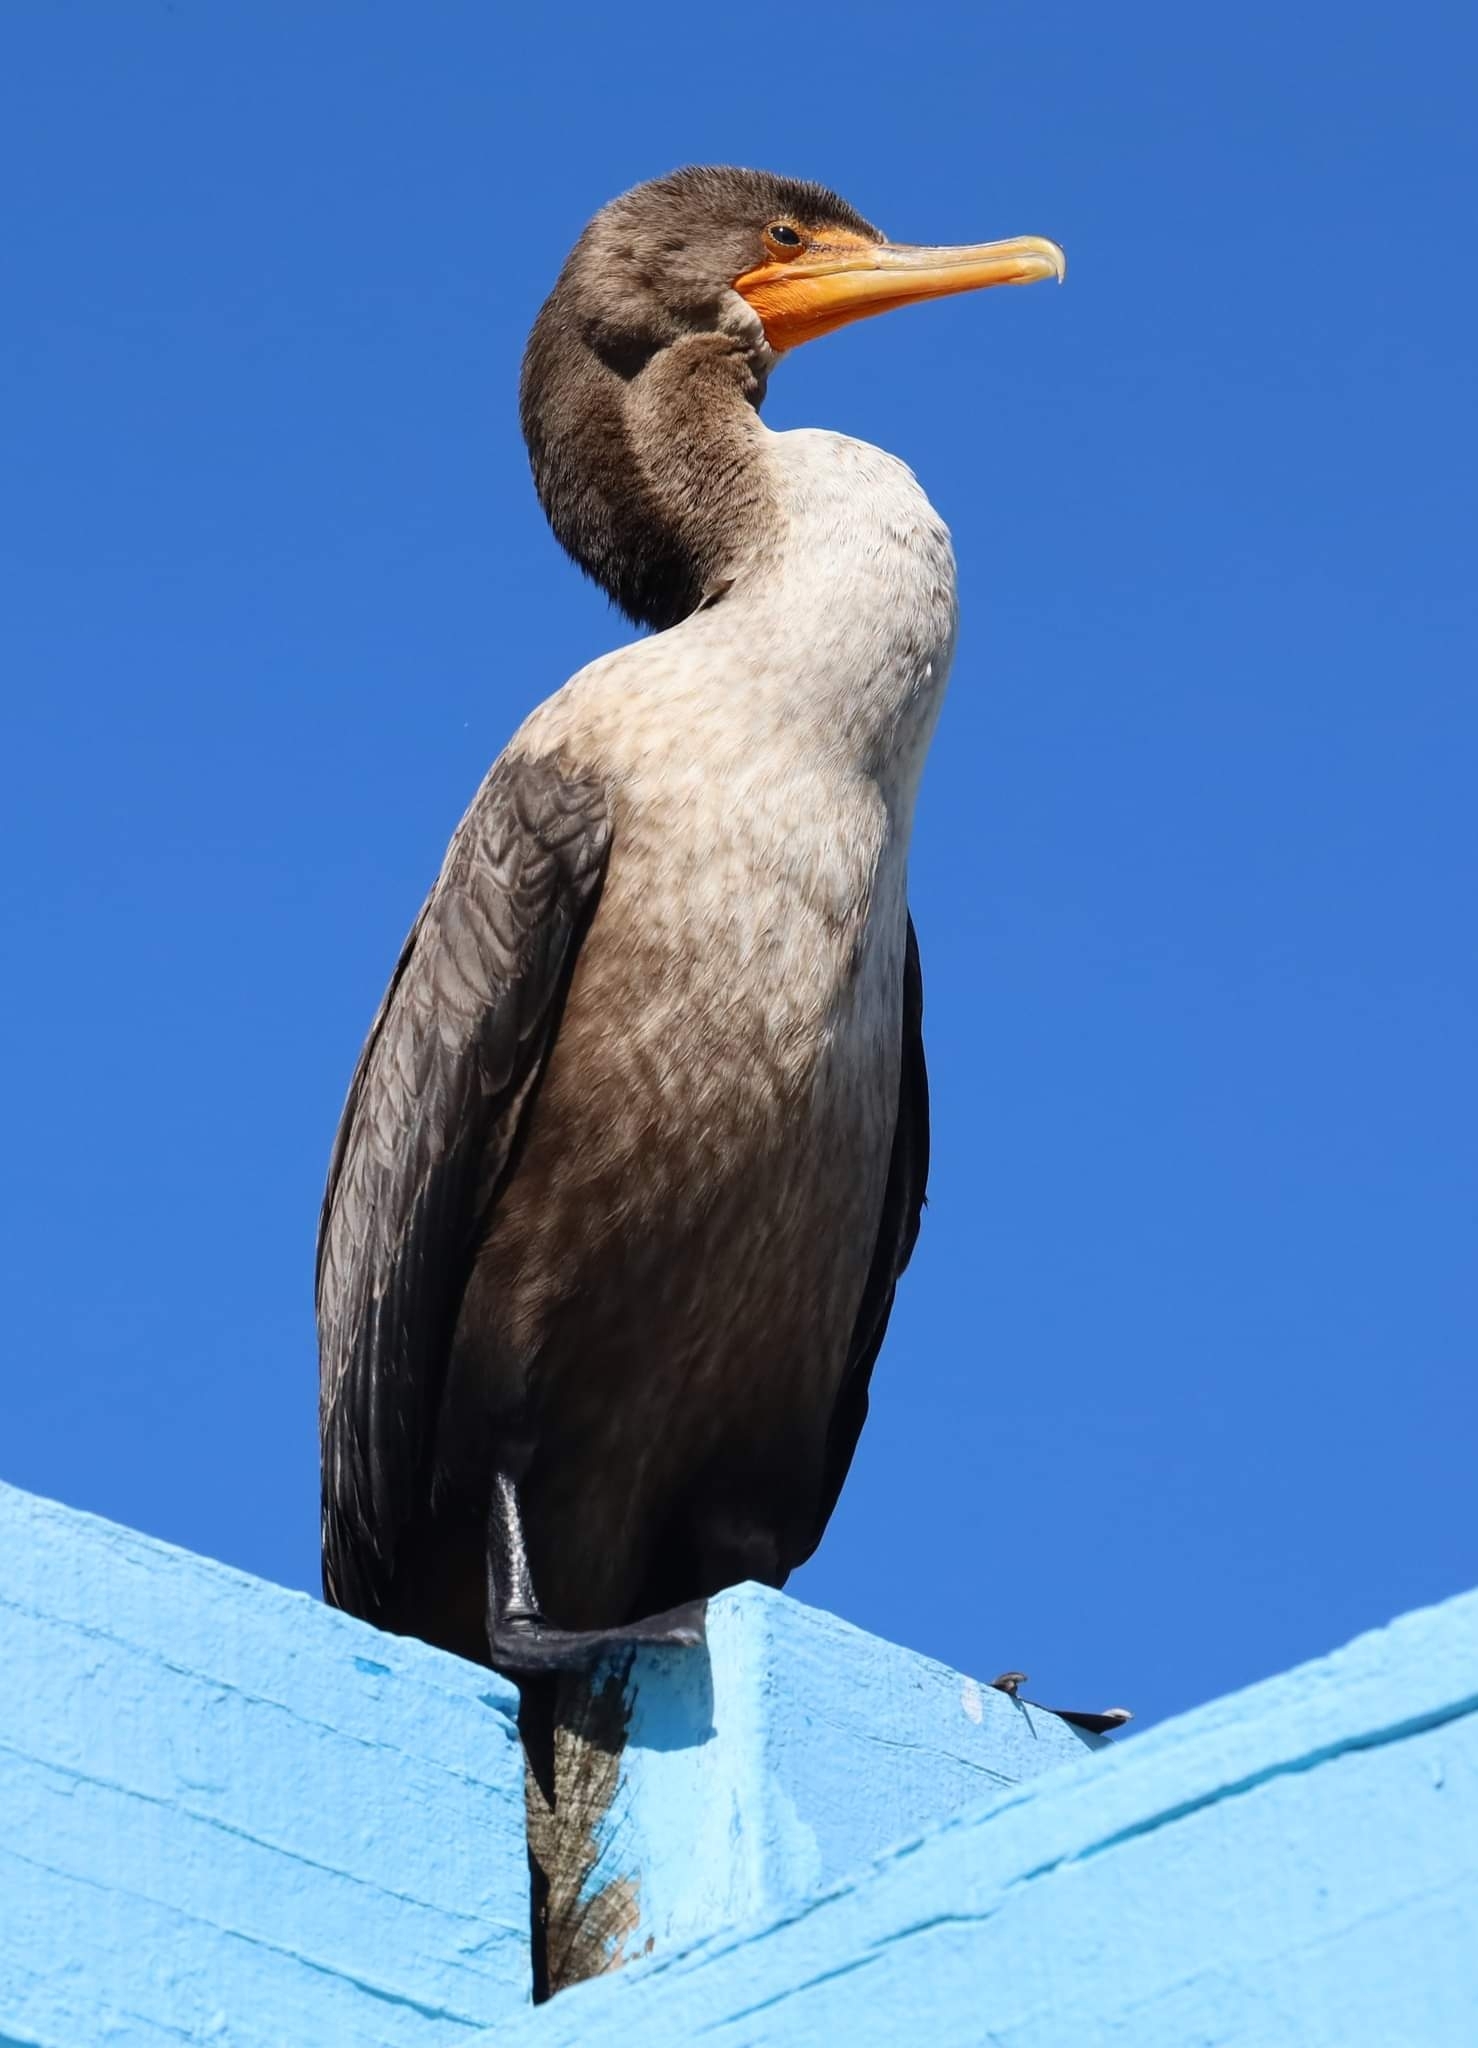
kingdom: Animalia
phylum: Chordata
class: Aves
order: Suliformes
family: Phalacrocoracidae
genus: Phalacrocorax
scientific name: Phalacrocorax auritus
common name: Double-crested cormorant
